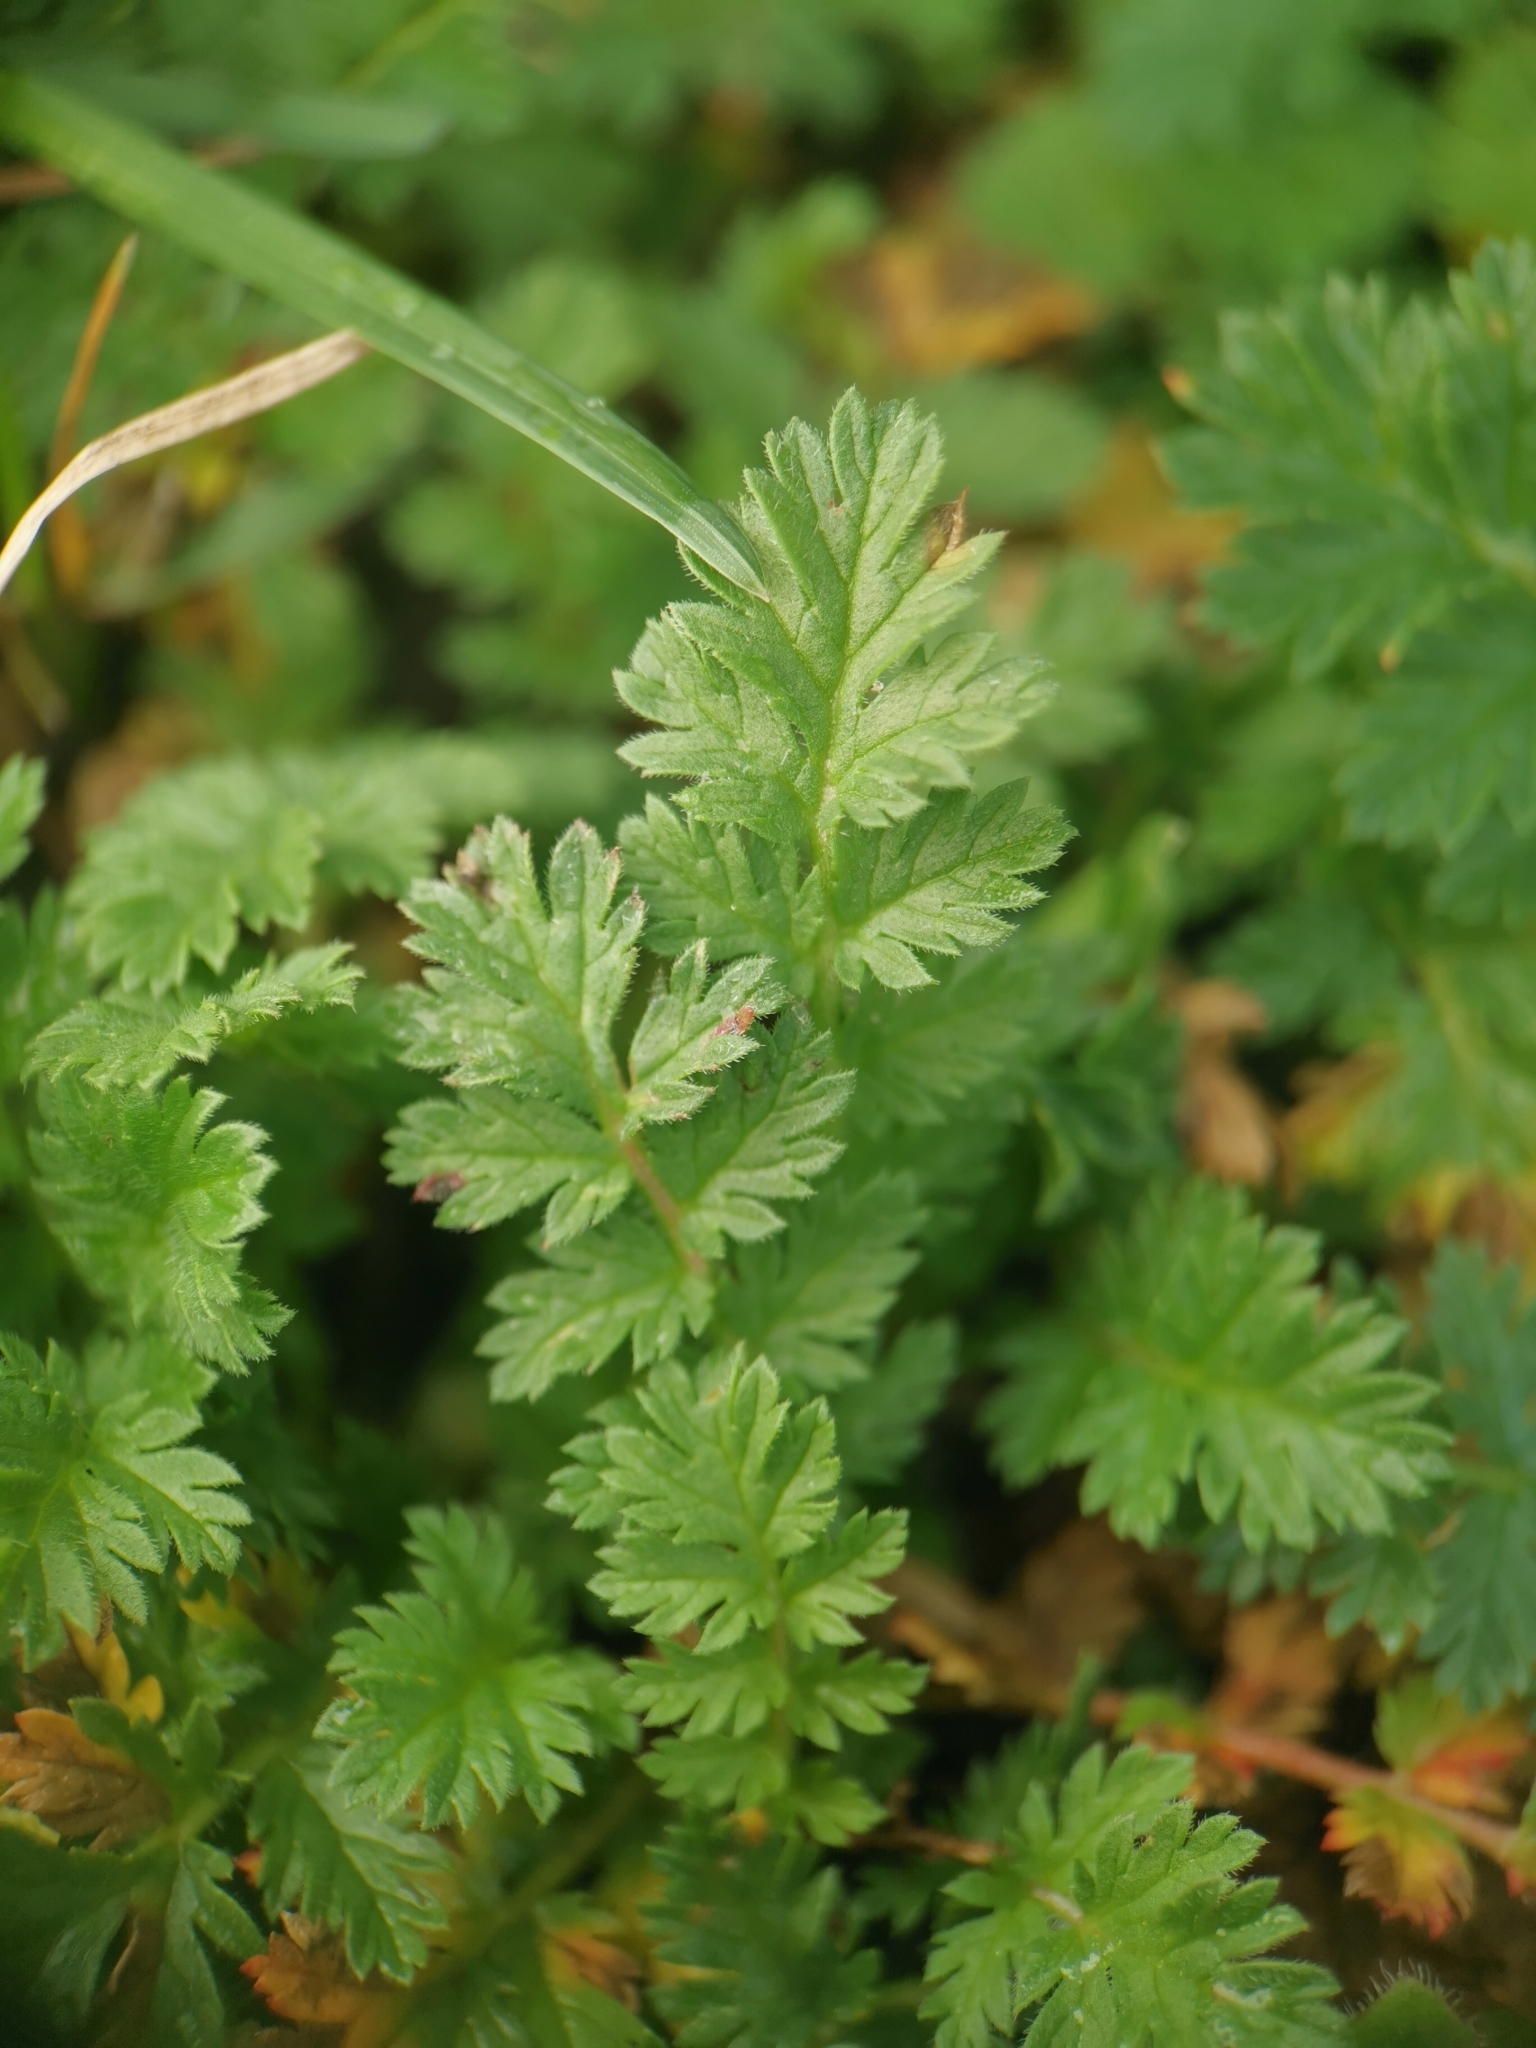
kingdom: Plantae
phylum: Tracheophyta
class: Magnoliopsida
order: Geraniales
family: Geraniaceae
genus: Erodium
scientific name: Erodium cicutarium
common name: Common stork's-bill
